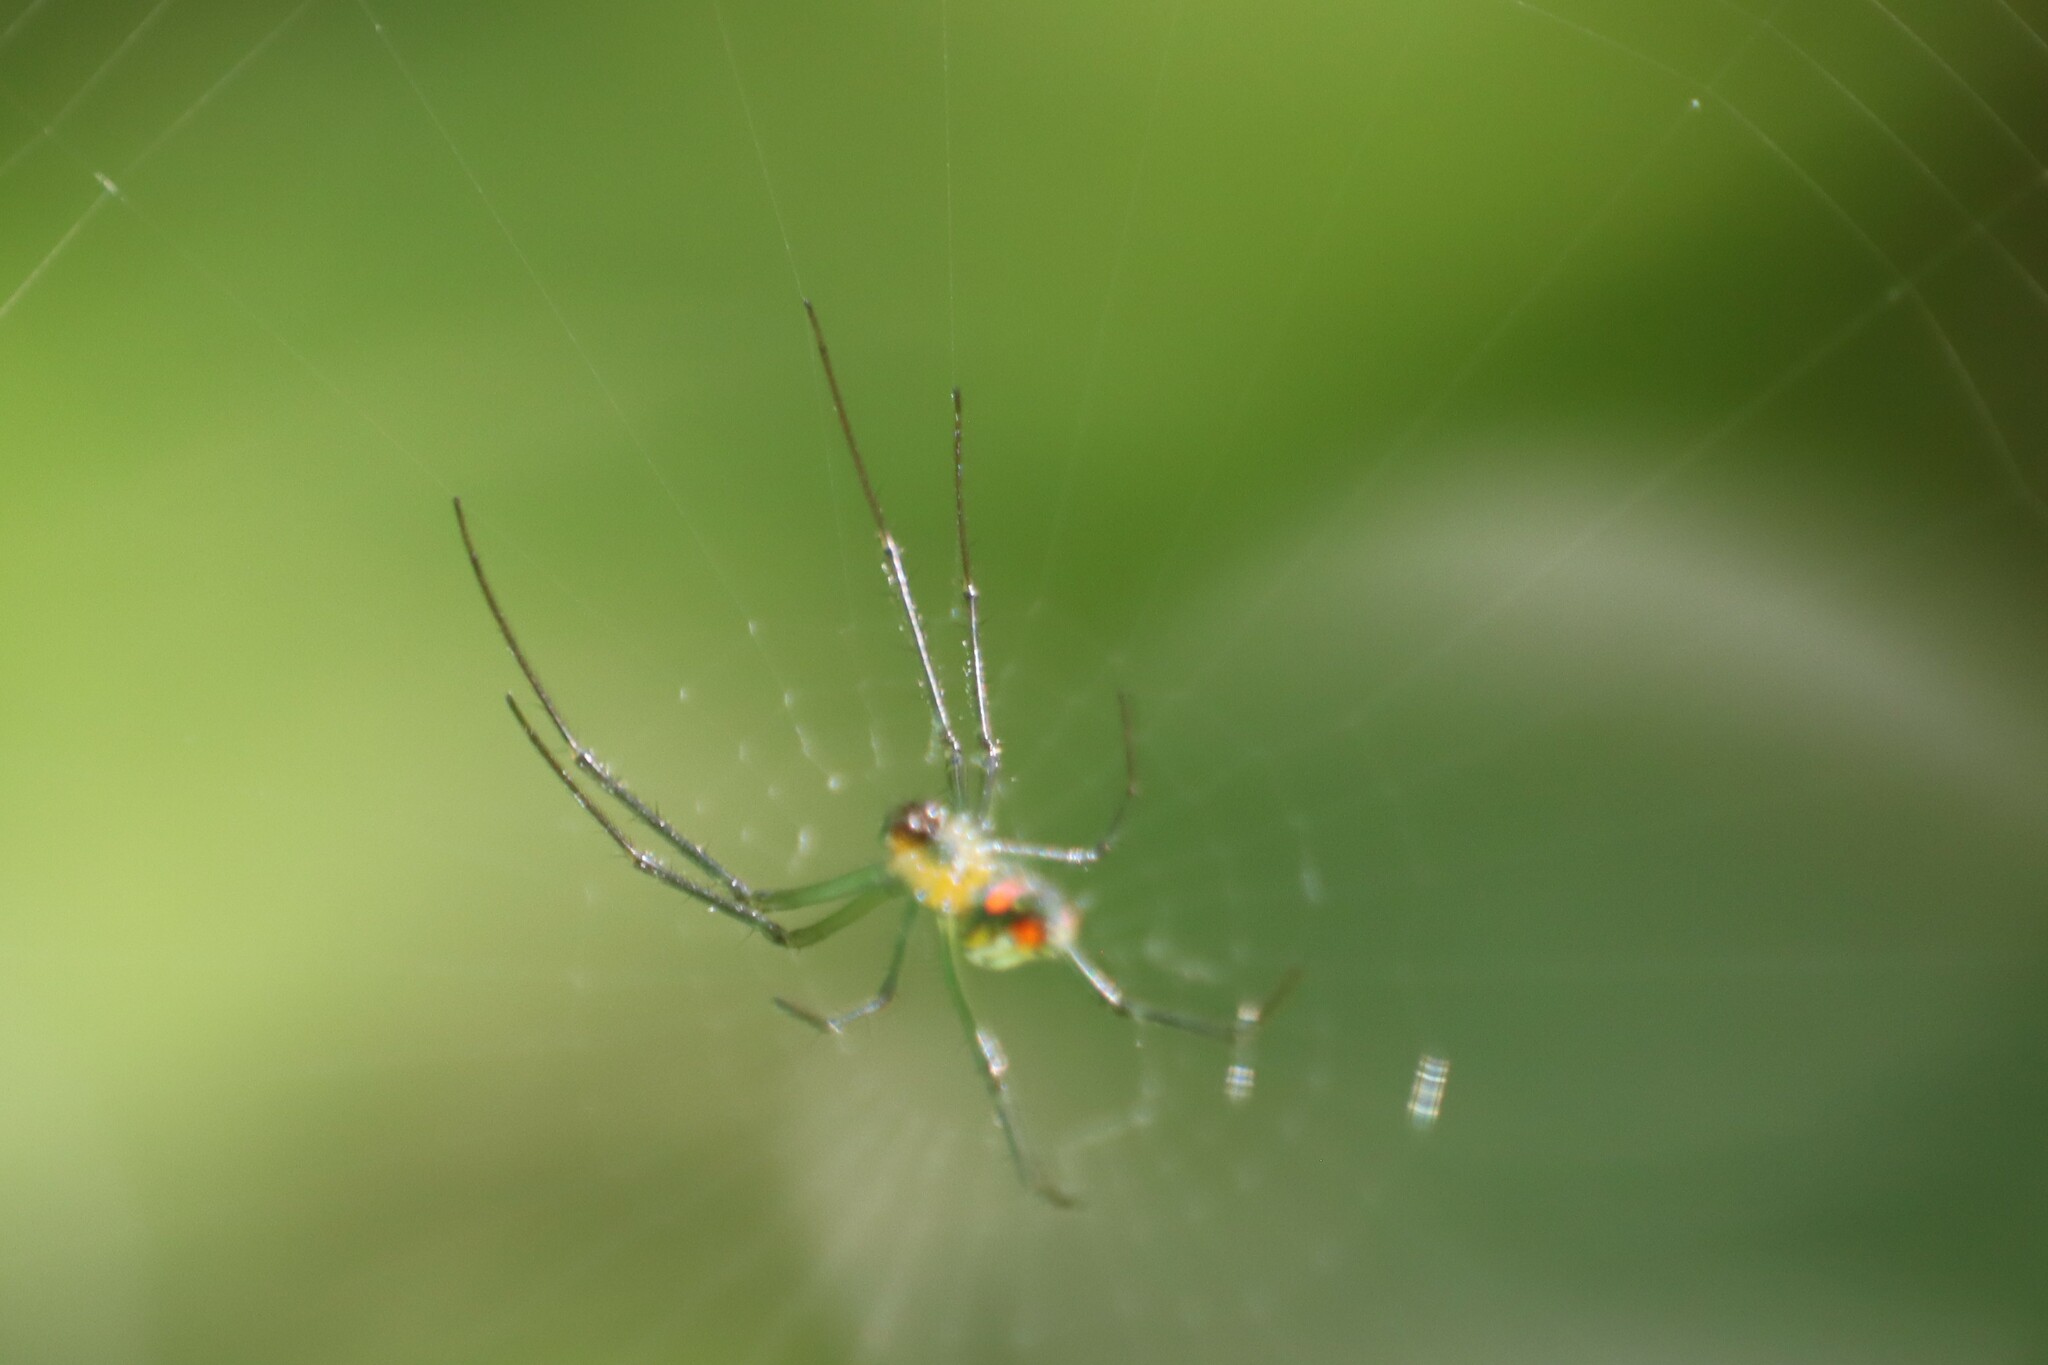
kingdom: Animalia
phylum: Arthropoda
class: Arachnida
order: Araneae
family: Tetragnathidae
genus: Leucauge
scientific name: Leucauge argyrobapta
